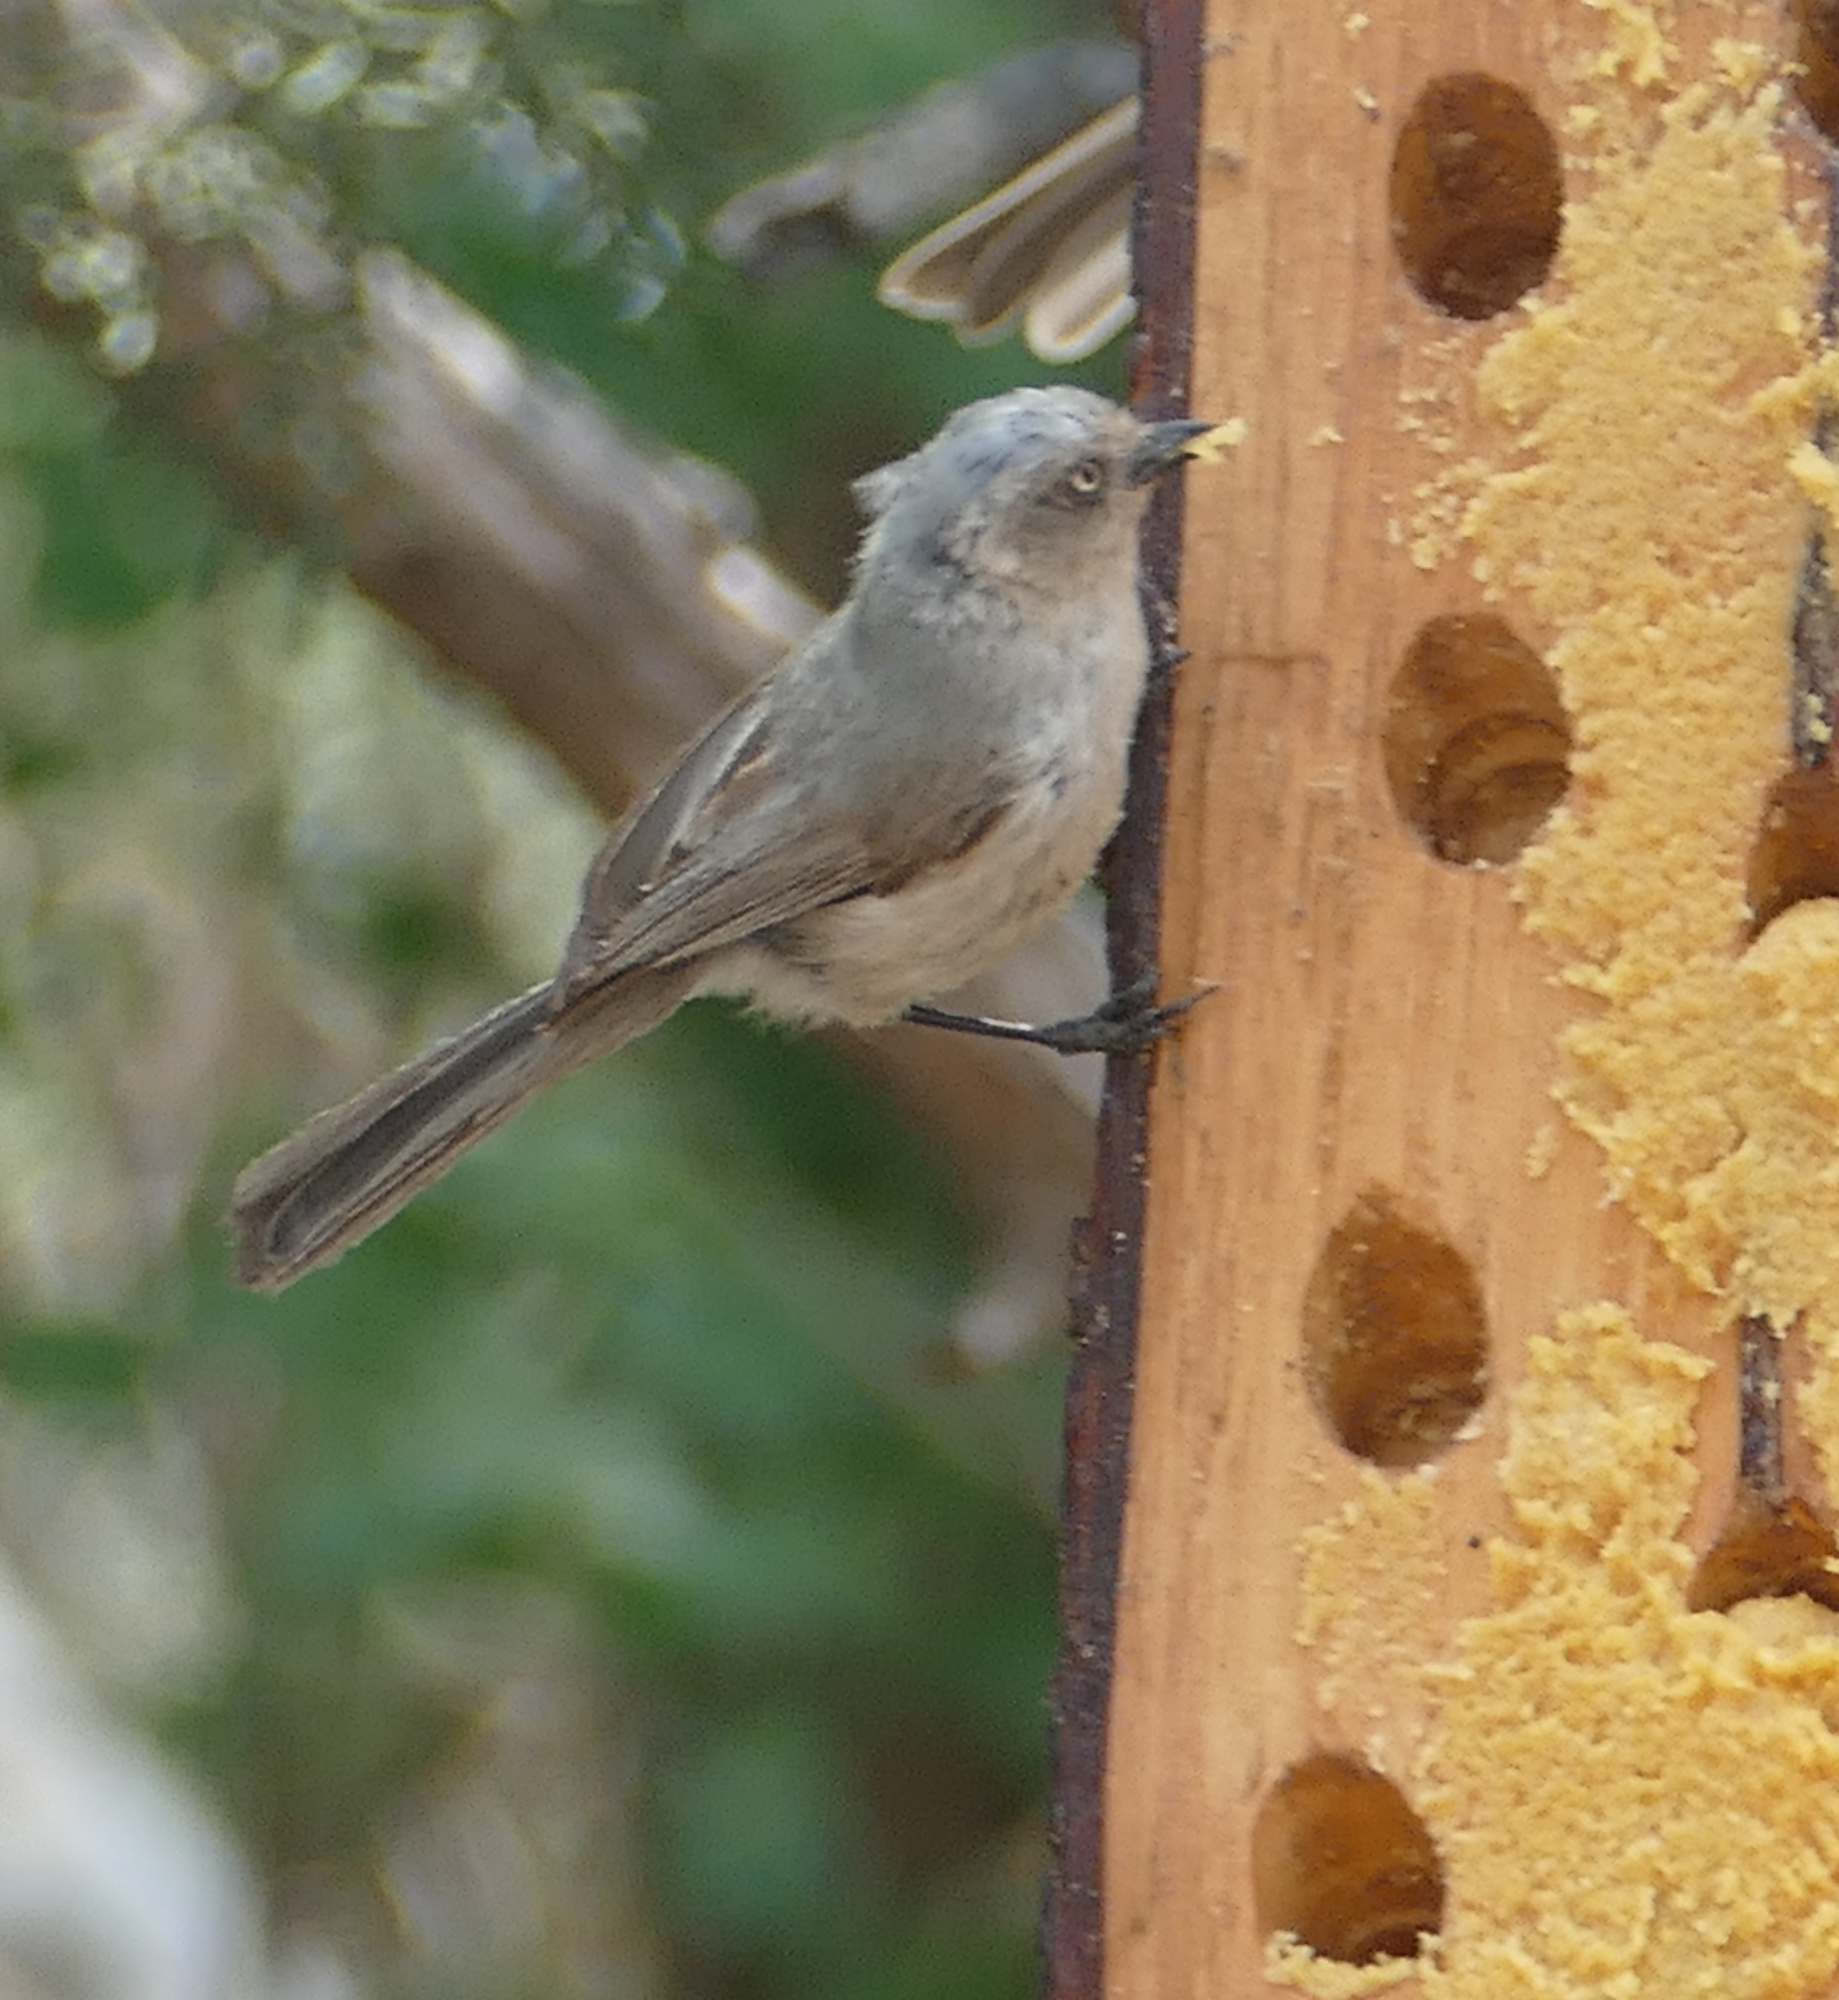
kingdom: Animalia
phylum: Chordata
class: Aves
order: Passeriformes
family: Aegithalidae
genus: Psaltriparus
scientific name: Psaltriparus minimus
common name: American bushtit
